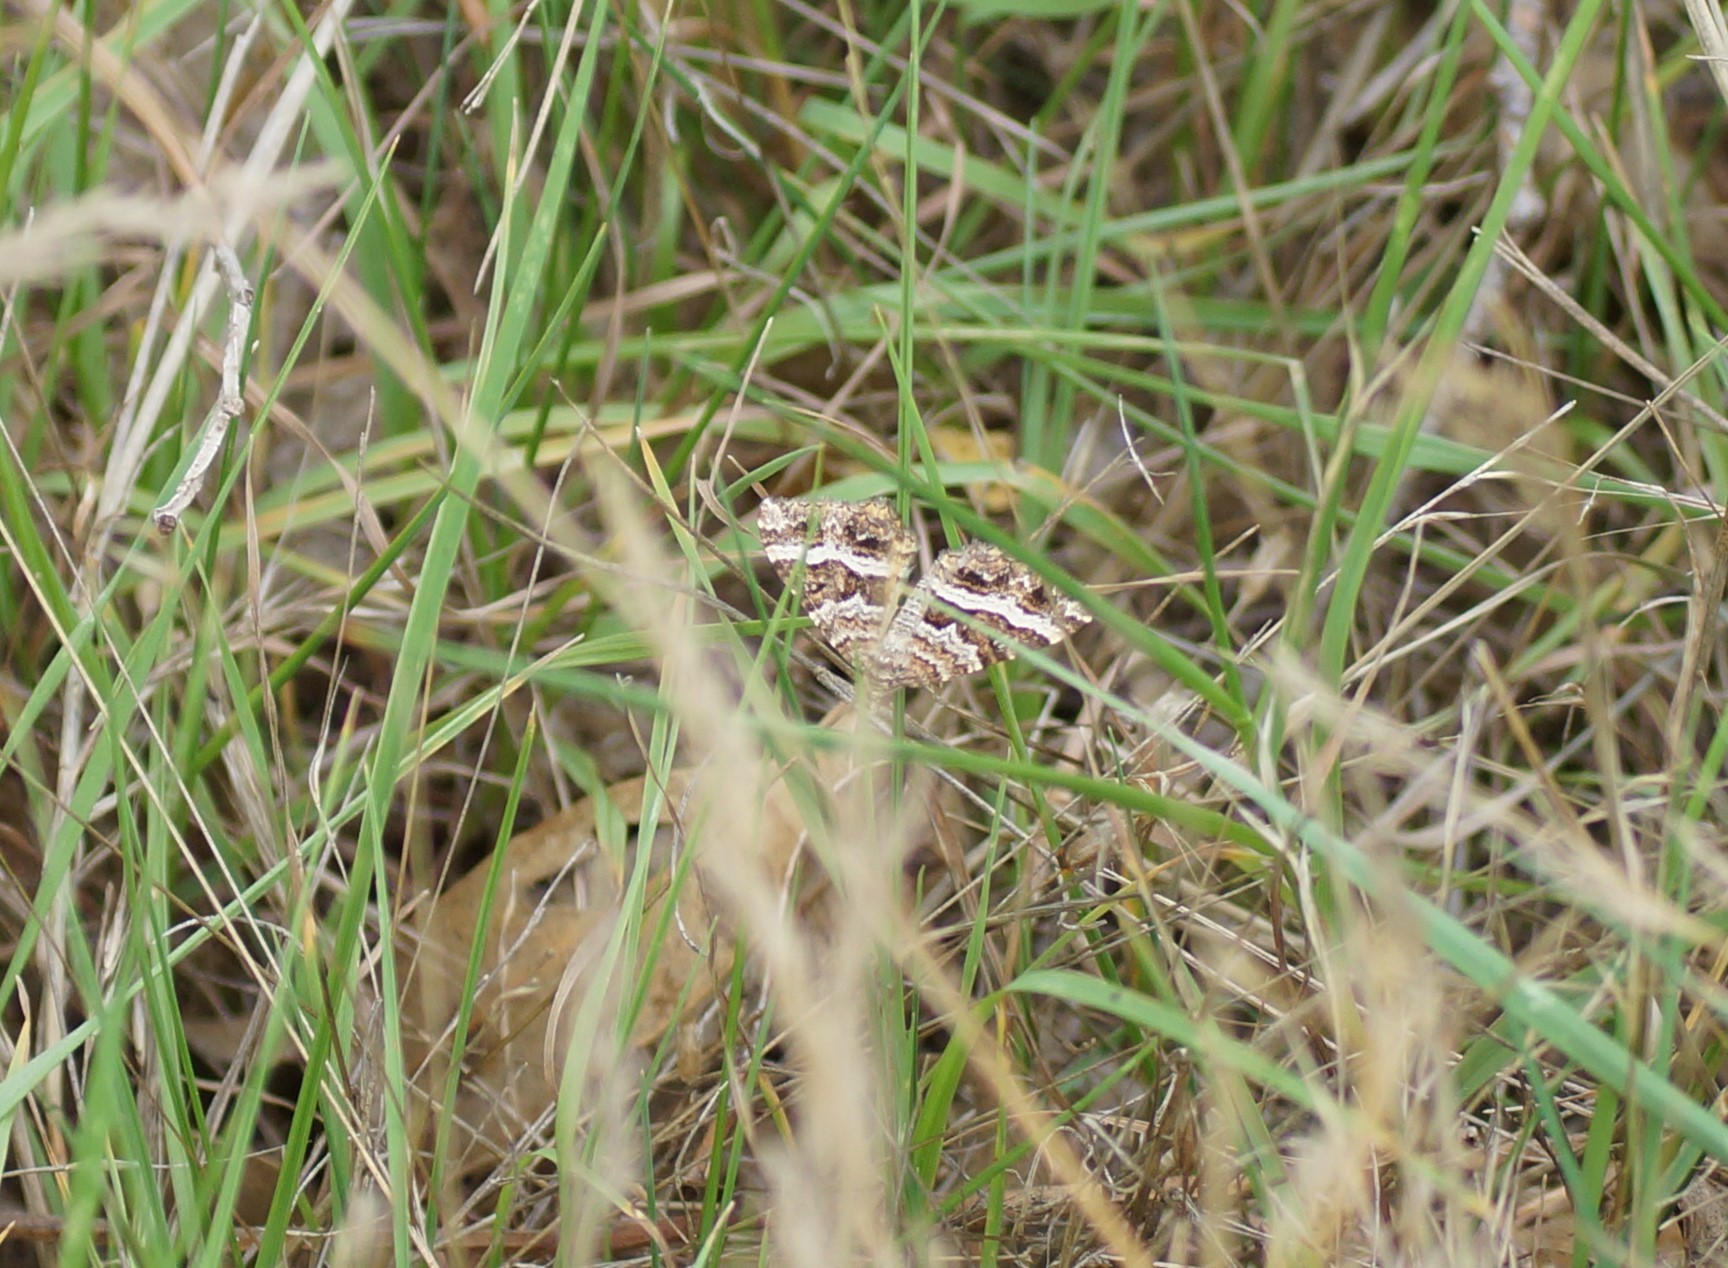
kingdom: Animalia
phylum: Arthropoda
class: Insecta
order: Lepidoptera
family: Geometridae
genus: Chrysolarentia
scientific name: Chrysolarentia vicissata
